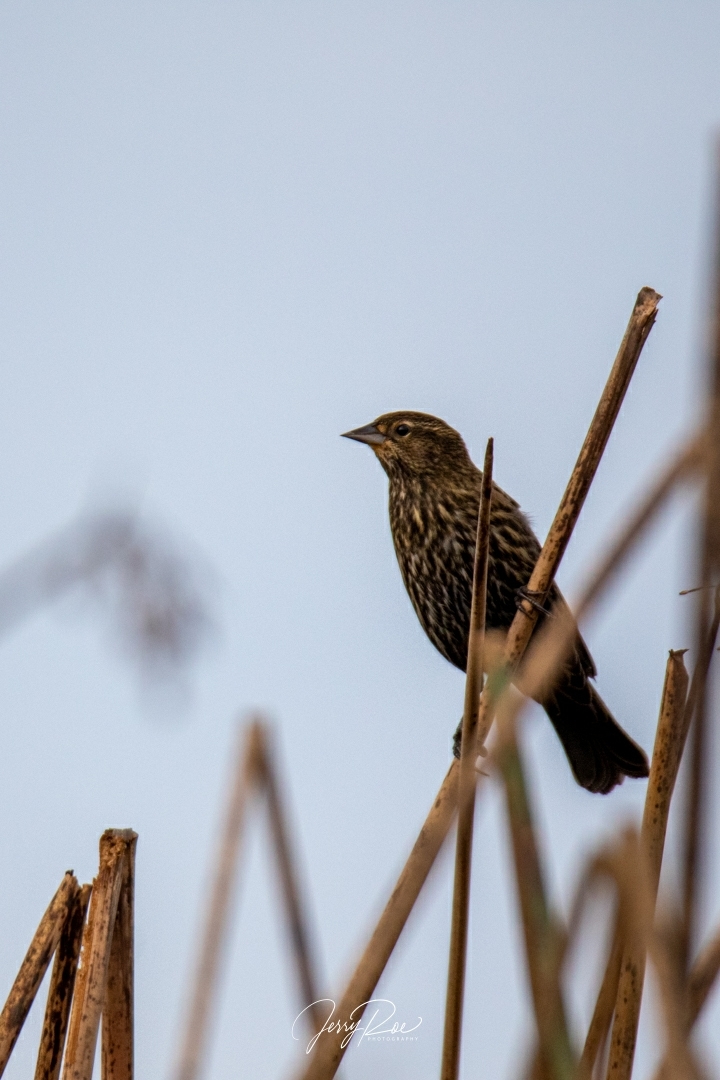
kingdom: Animalia
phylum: Chordata
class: Aves
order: Passeriformes
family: Icteridae
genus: Agelaius
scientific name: Agelaius phoeniceus
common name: Red-winged blackbird
